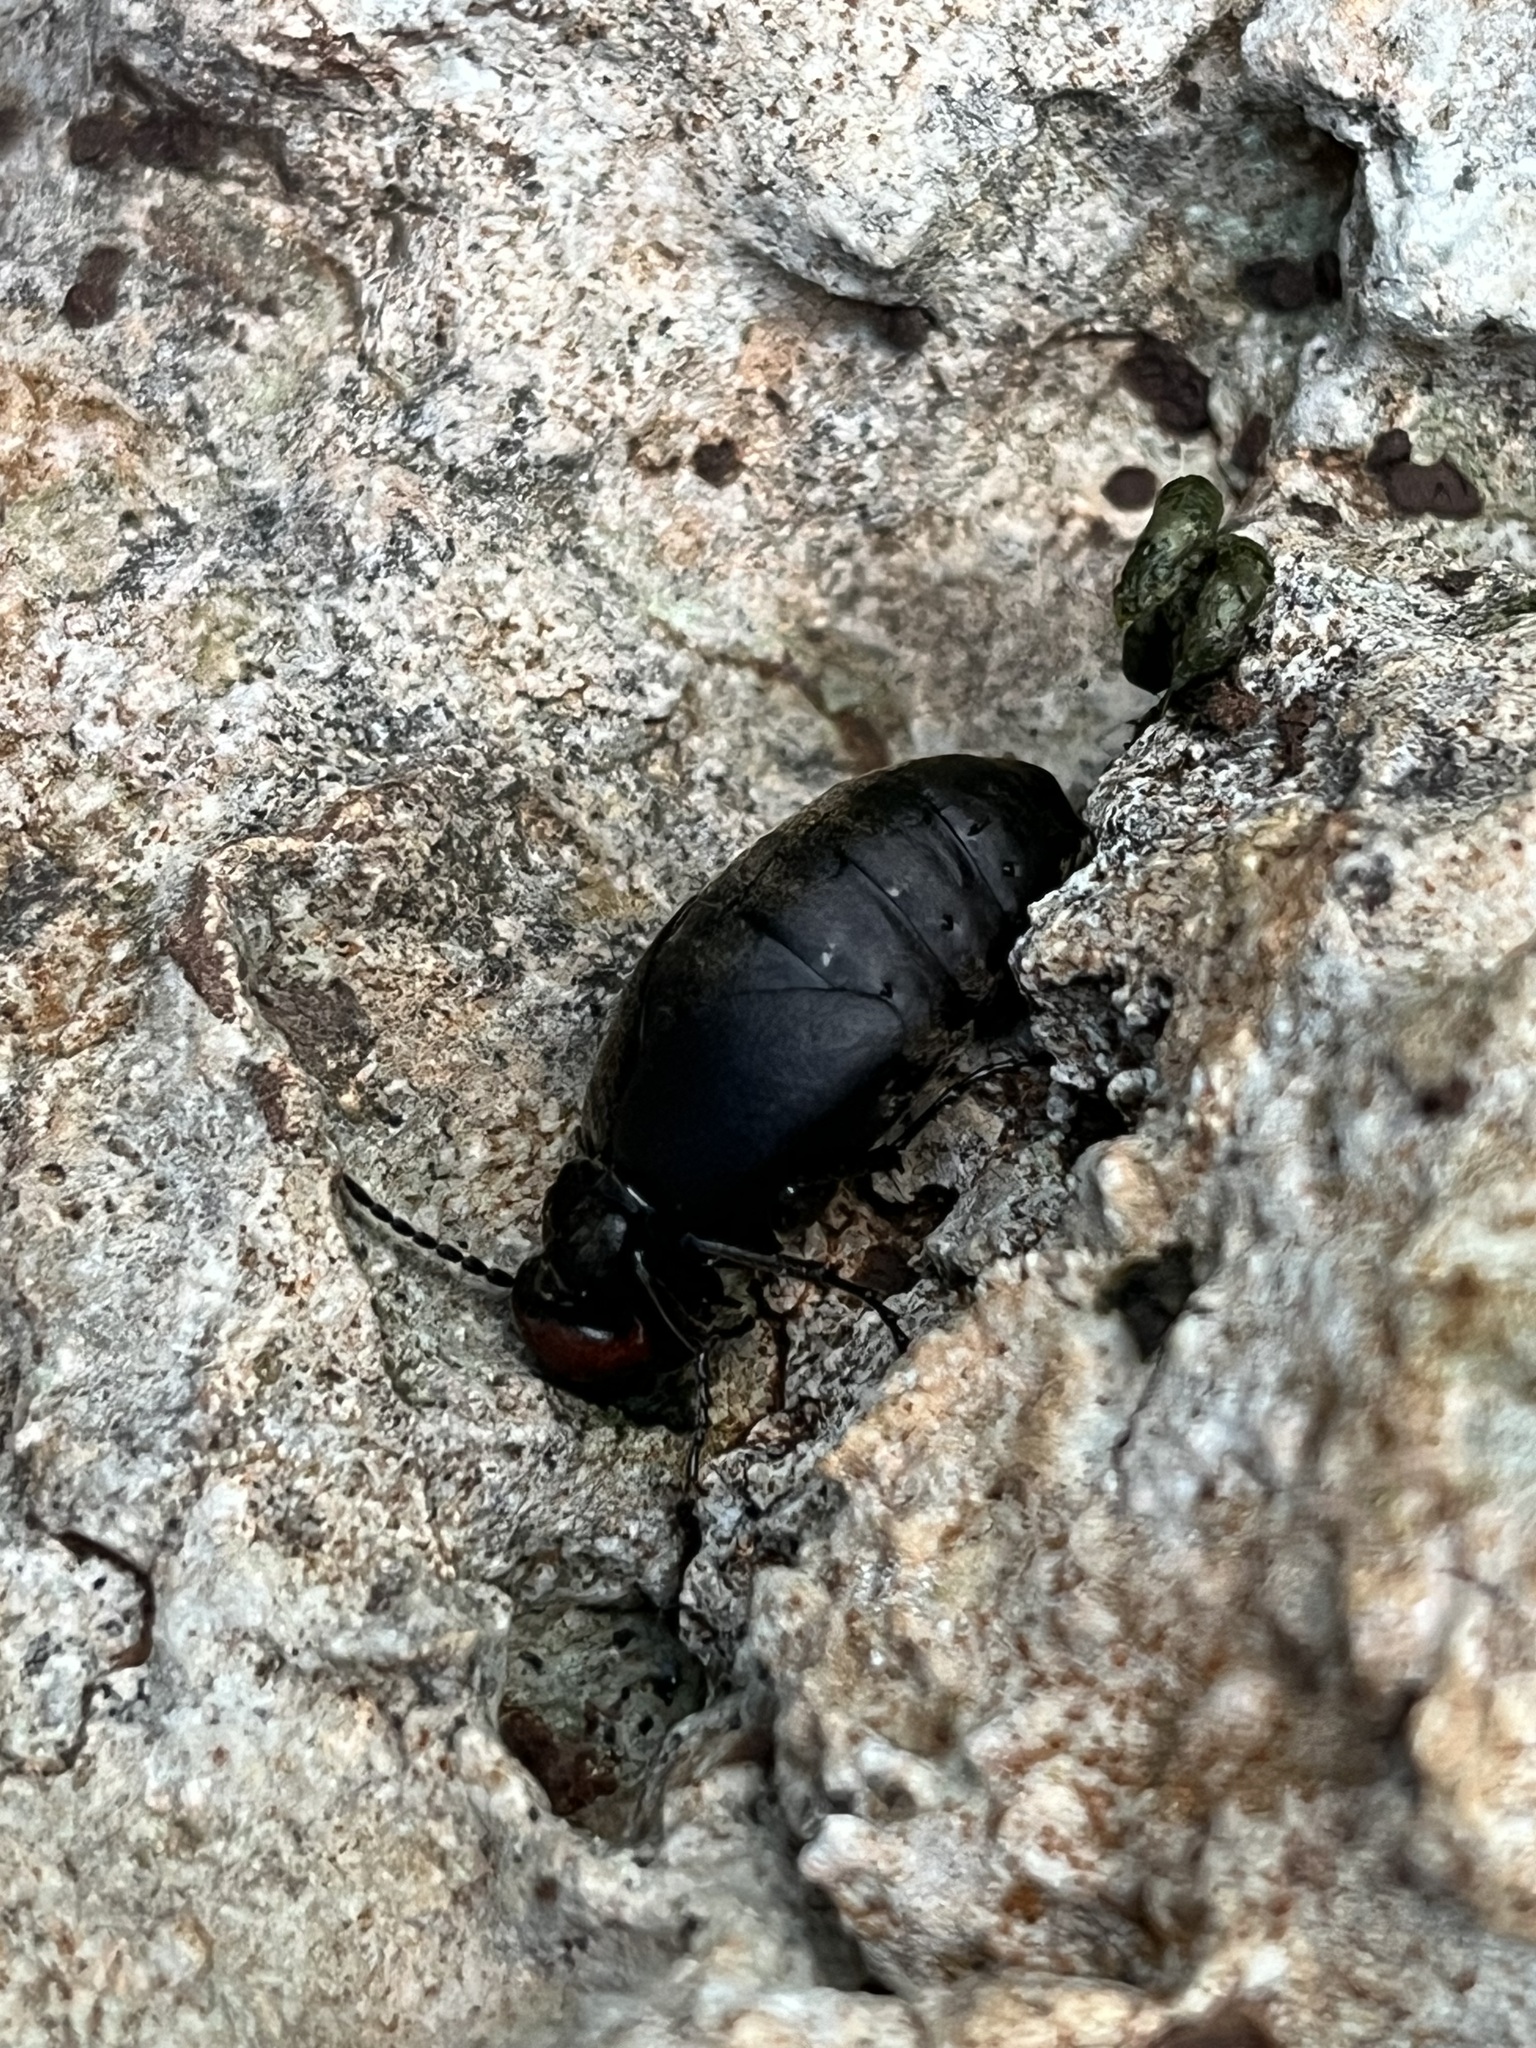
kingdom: Animalia
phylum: Arthropoda
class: Insecta
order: Coleoptera
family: Meloidae
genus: Trichomeloe
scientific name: Trichomeloe sericellus
